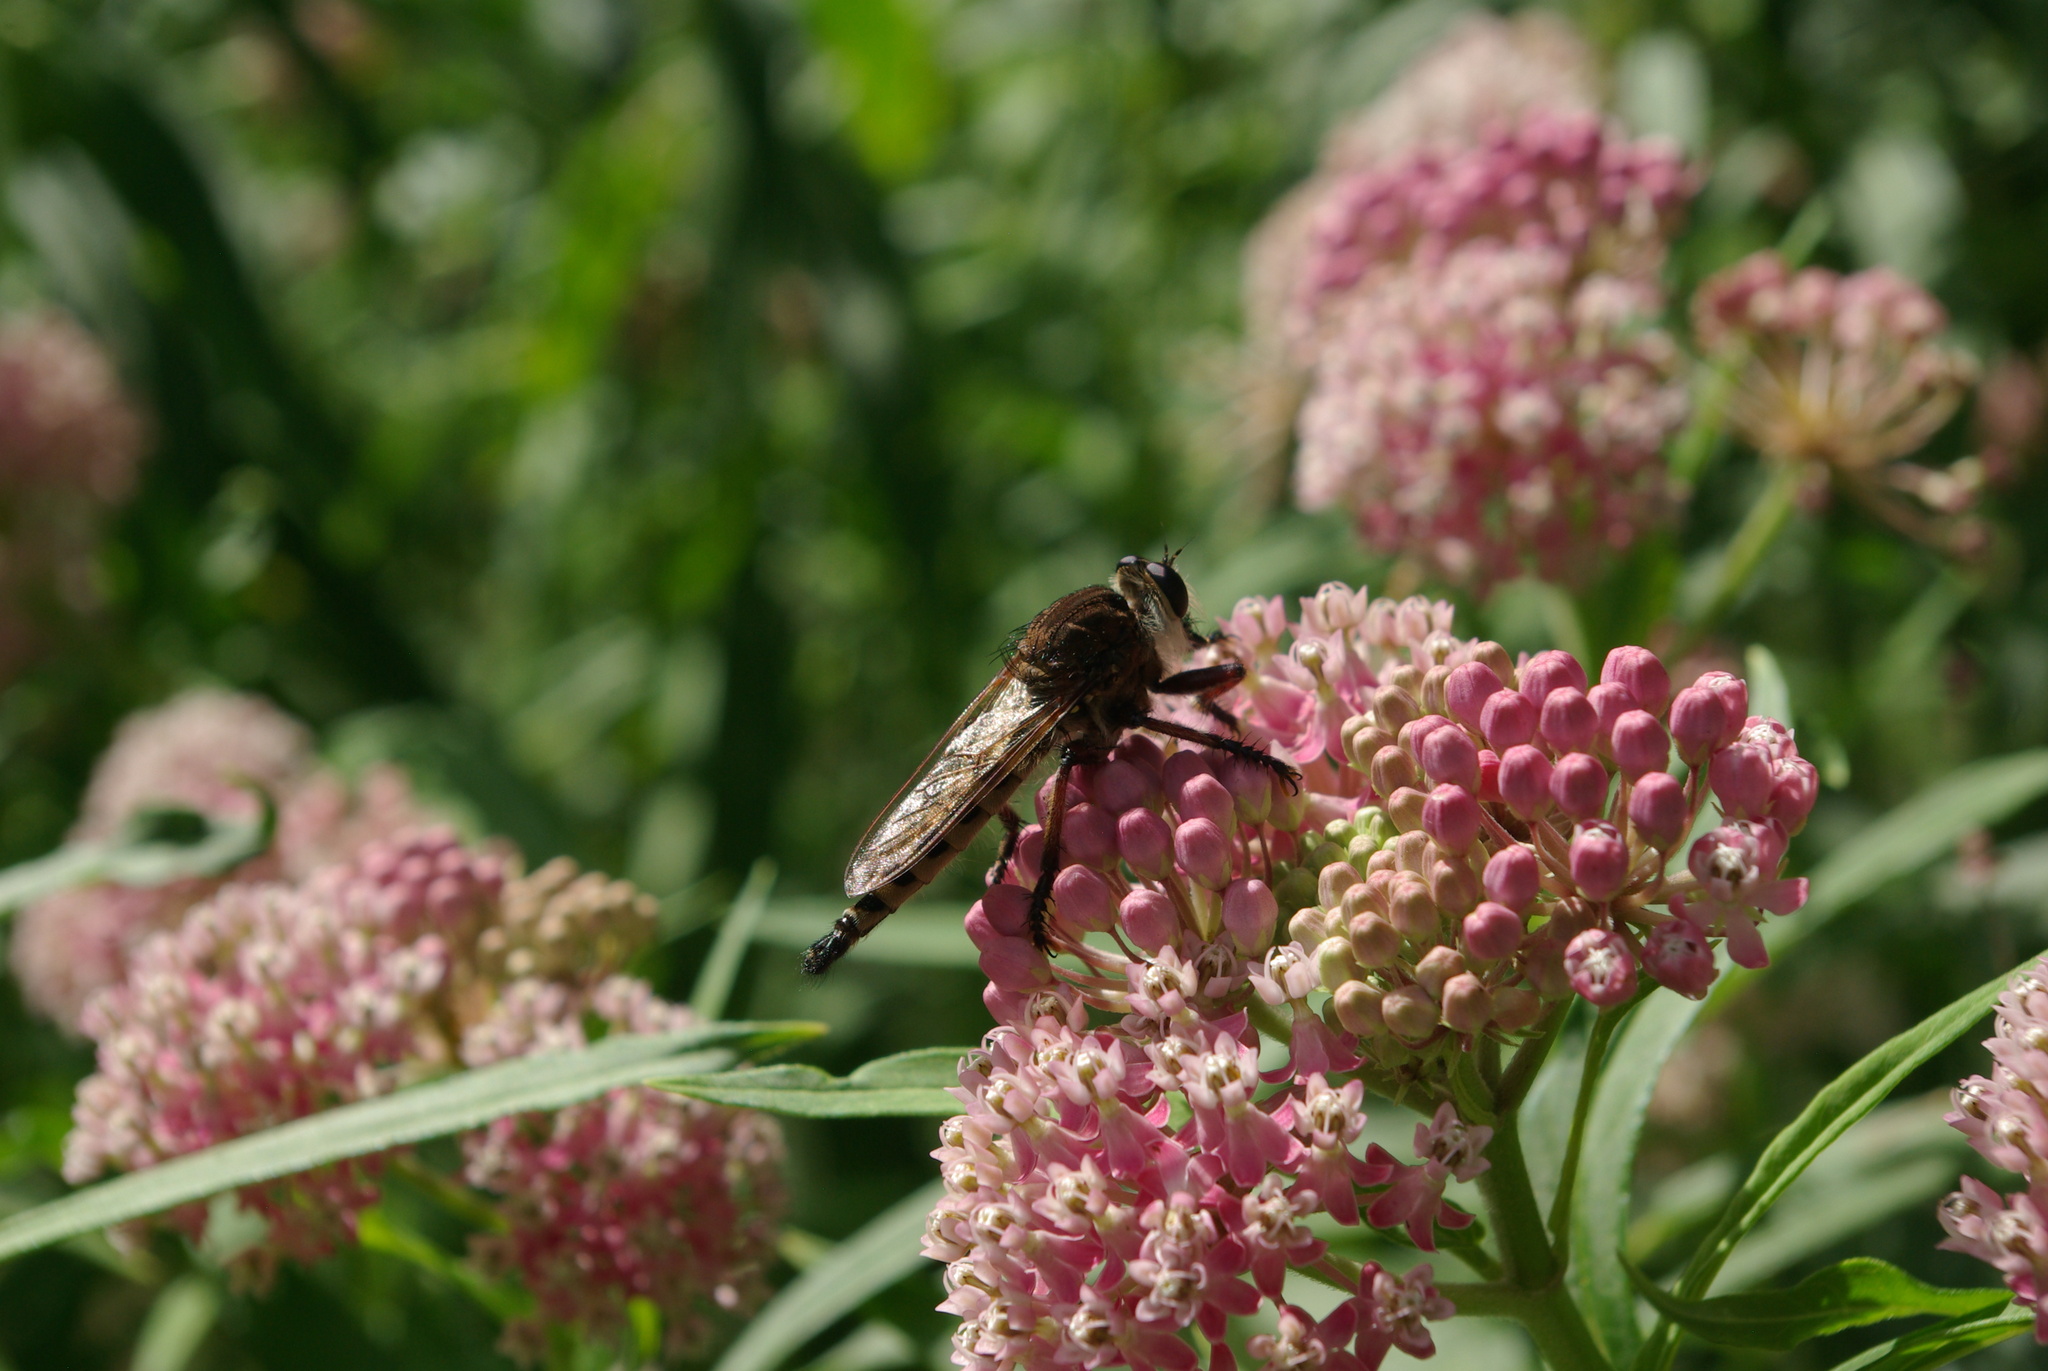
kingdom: Animalia
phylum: Arthropoda
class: Insecta
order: Diptera
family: Asilidae
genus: Promachus
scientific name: Promachus hinei
